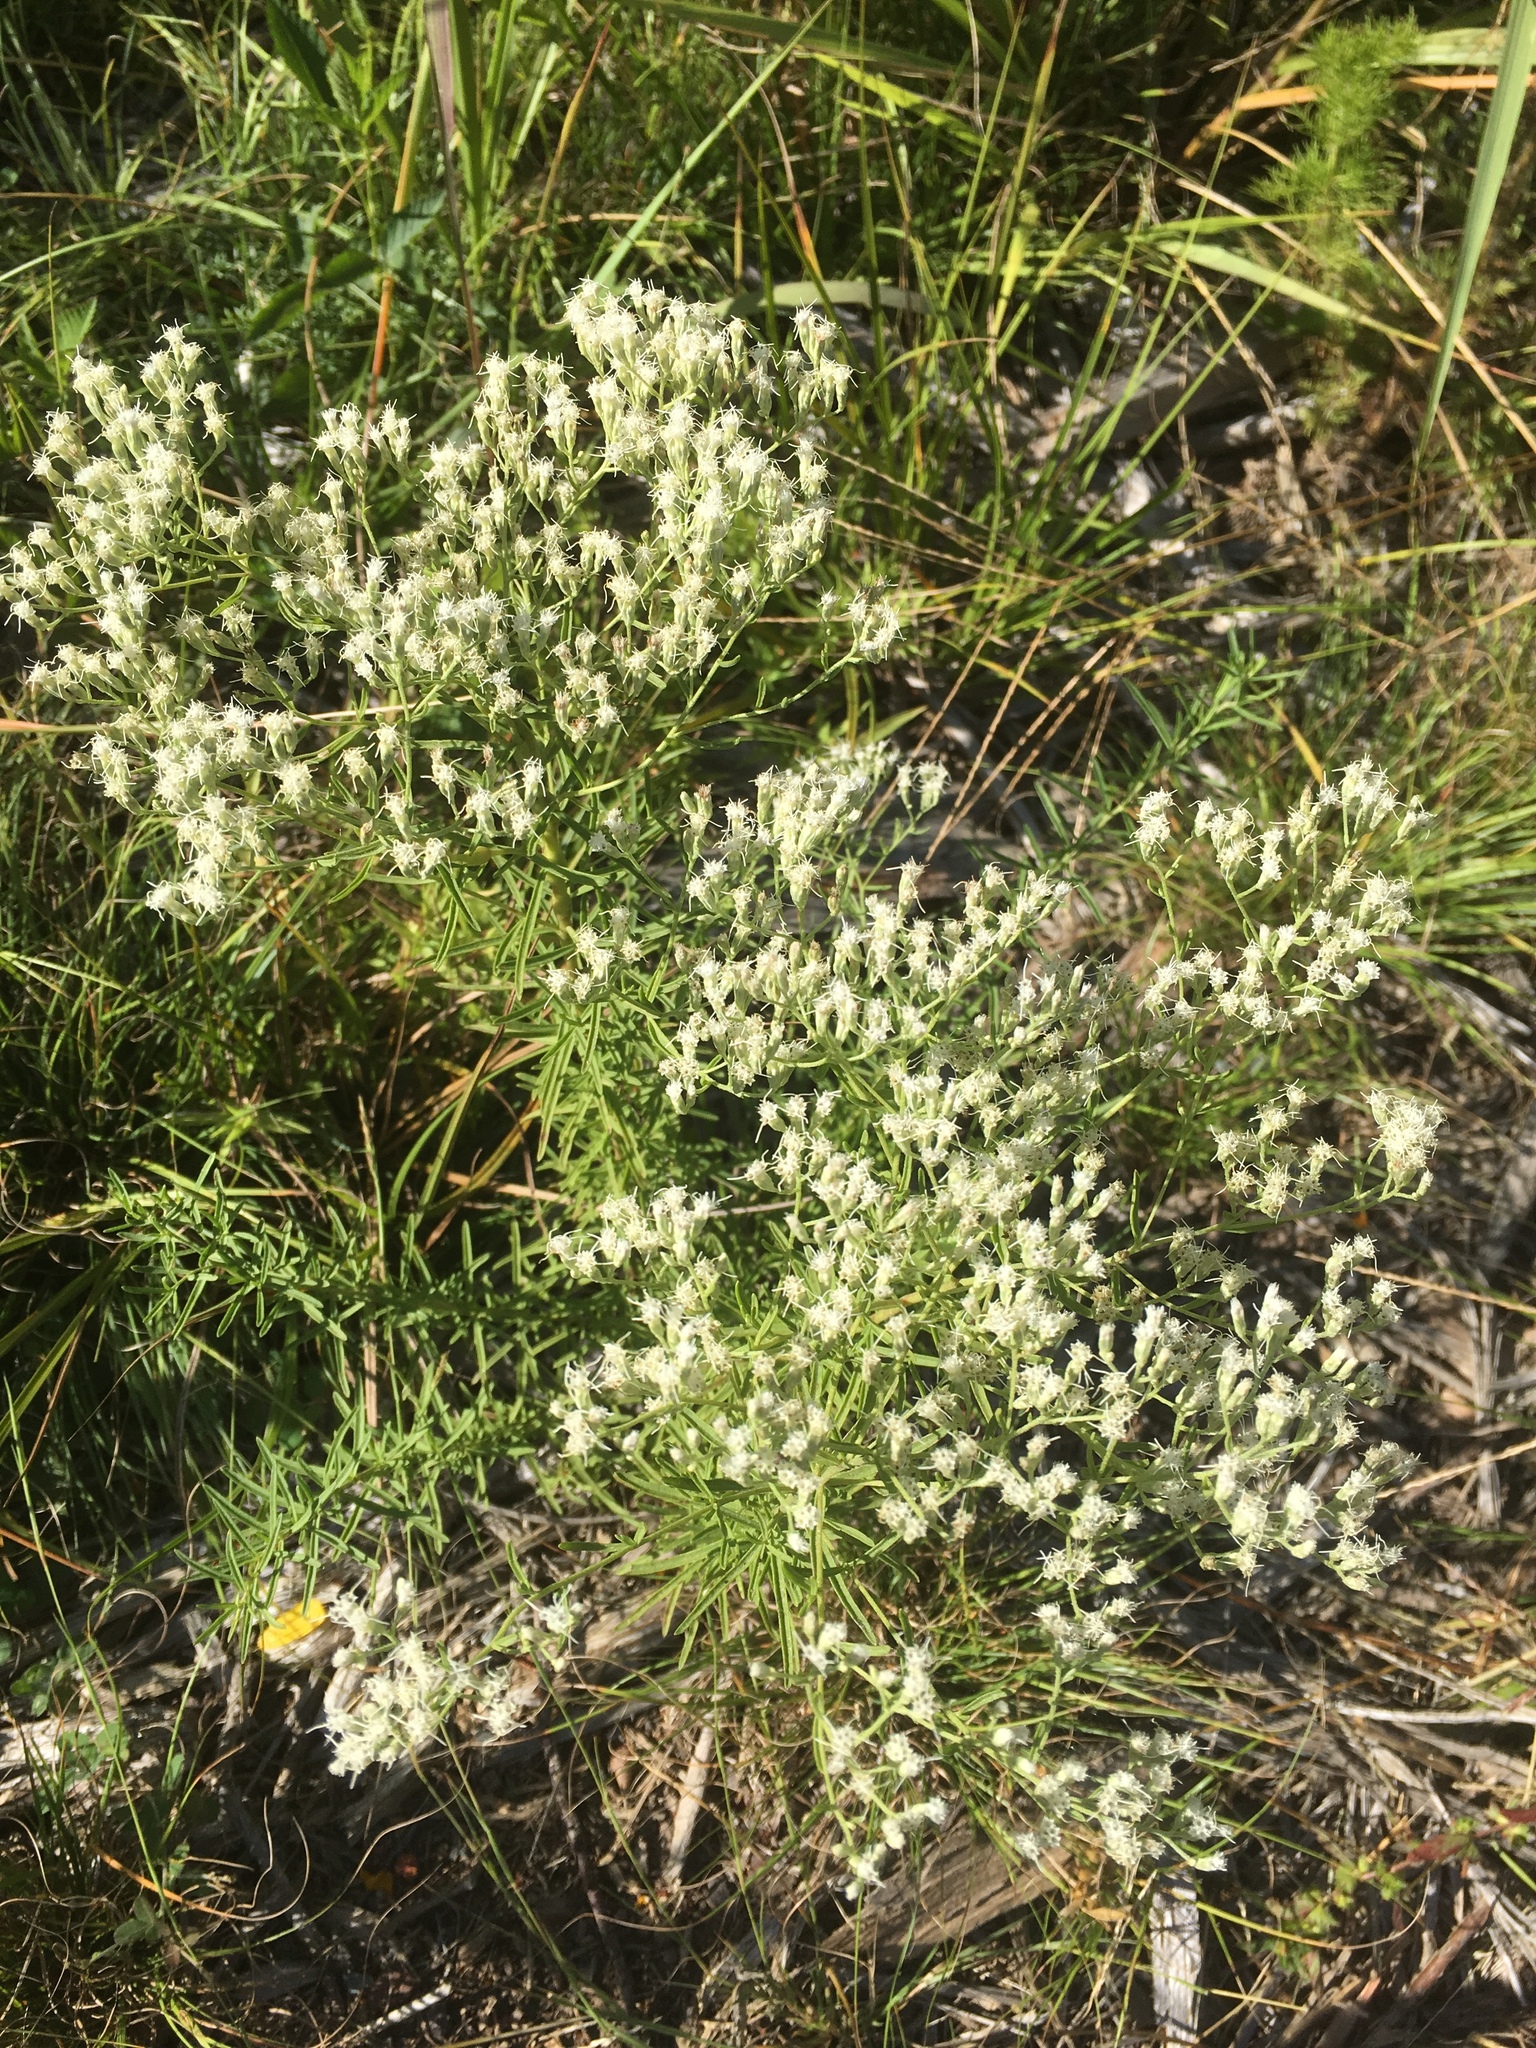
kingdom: Plantae
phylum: Tracheophyta
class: Magnoliopsida
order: Asterales
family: Asteraceae
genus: Eupatorium
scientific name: Eupatorium hyssopifolium
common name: Hyssop-leaf thoroughwort
